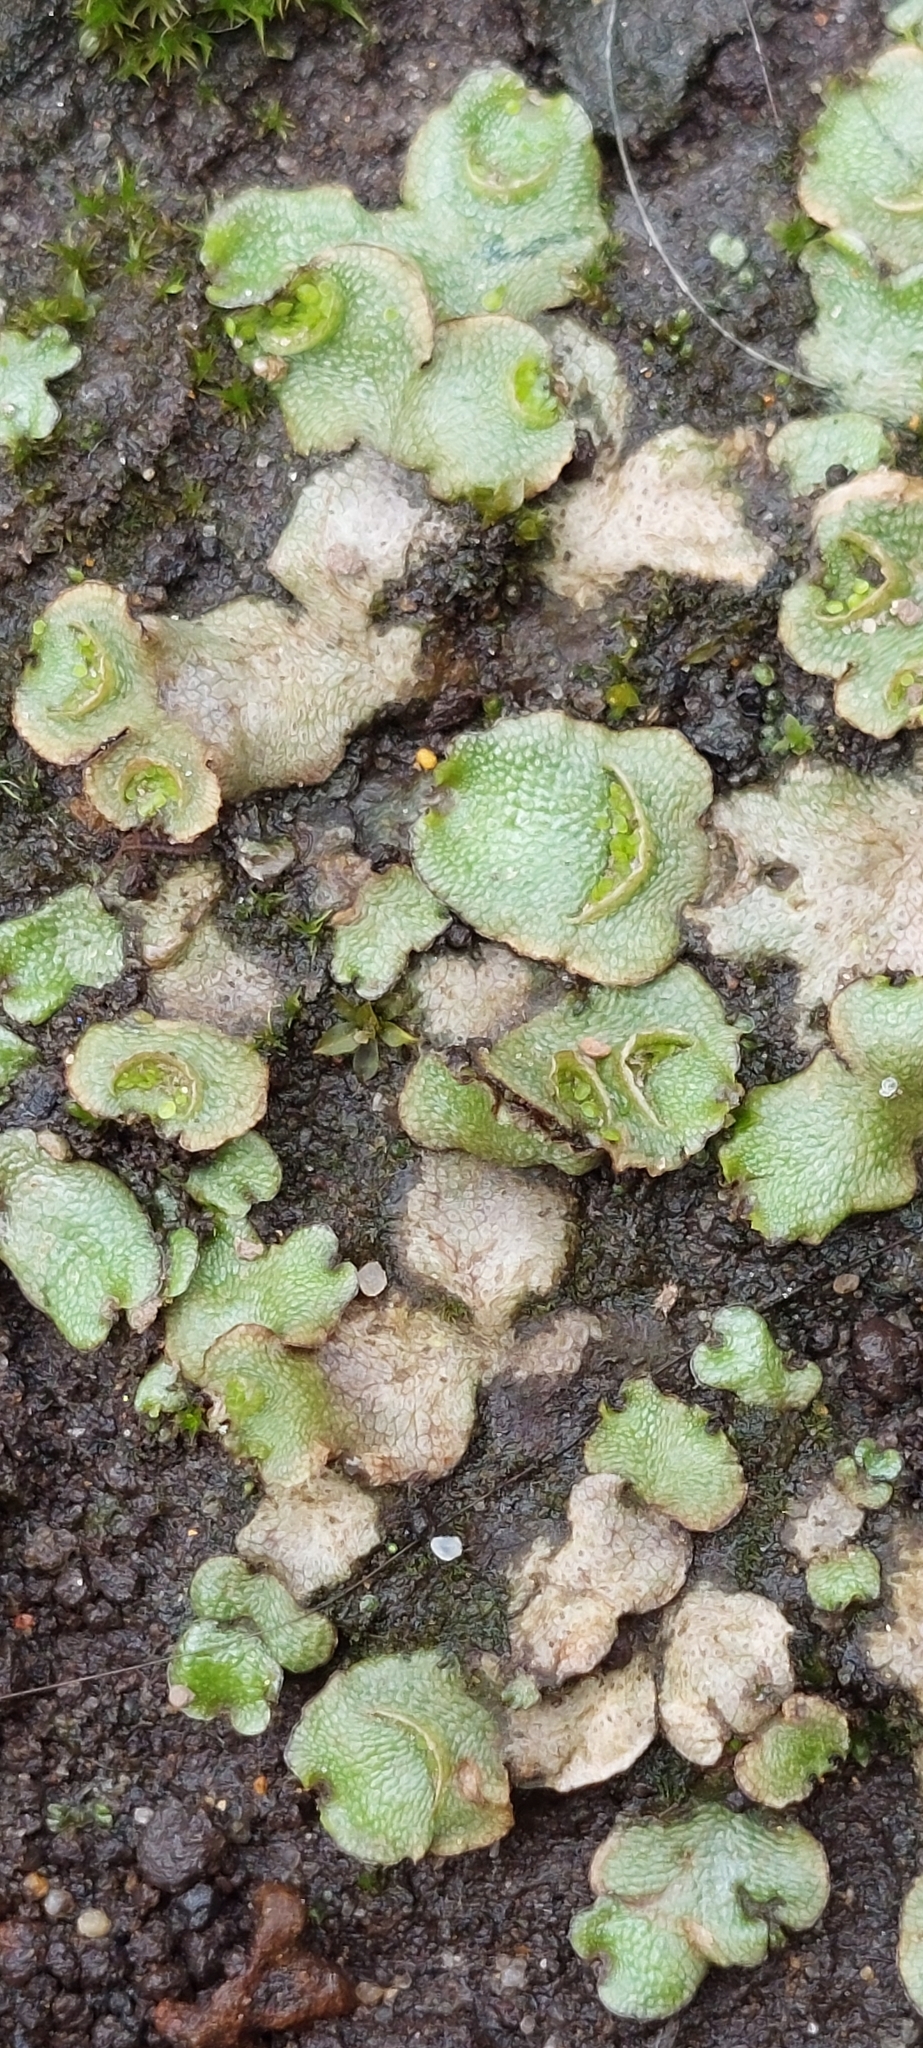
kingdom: Plantae
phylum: Marchantiophyta
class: Marchantiopsida
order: Lunulariales
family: Lunulariaceae
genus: Lunularia
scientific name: Lunularia cruciata
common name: Crescent-cup liverwort
